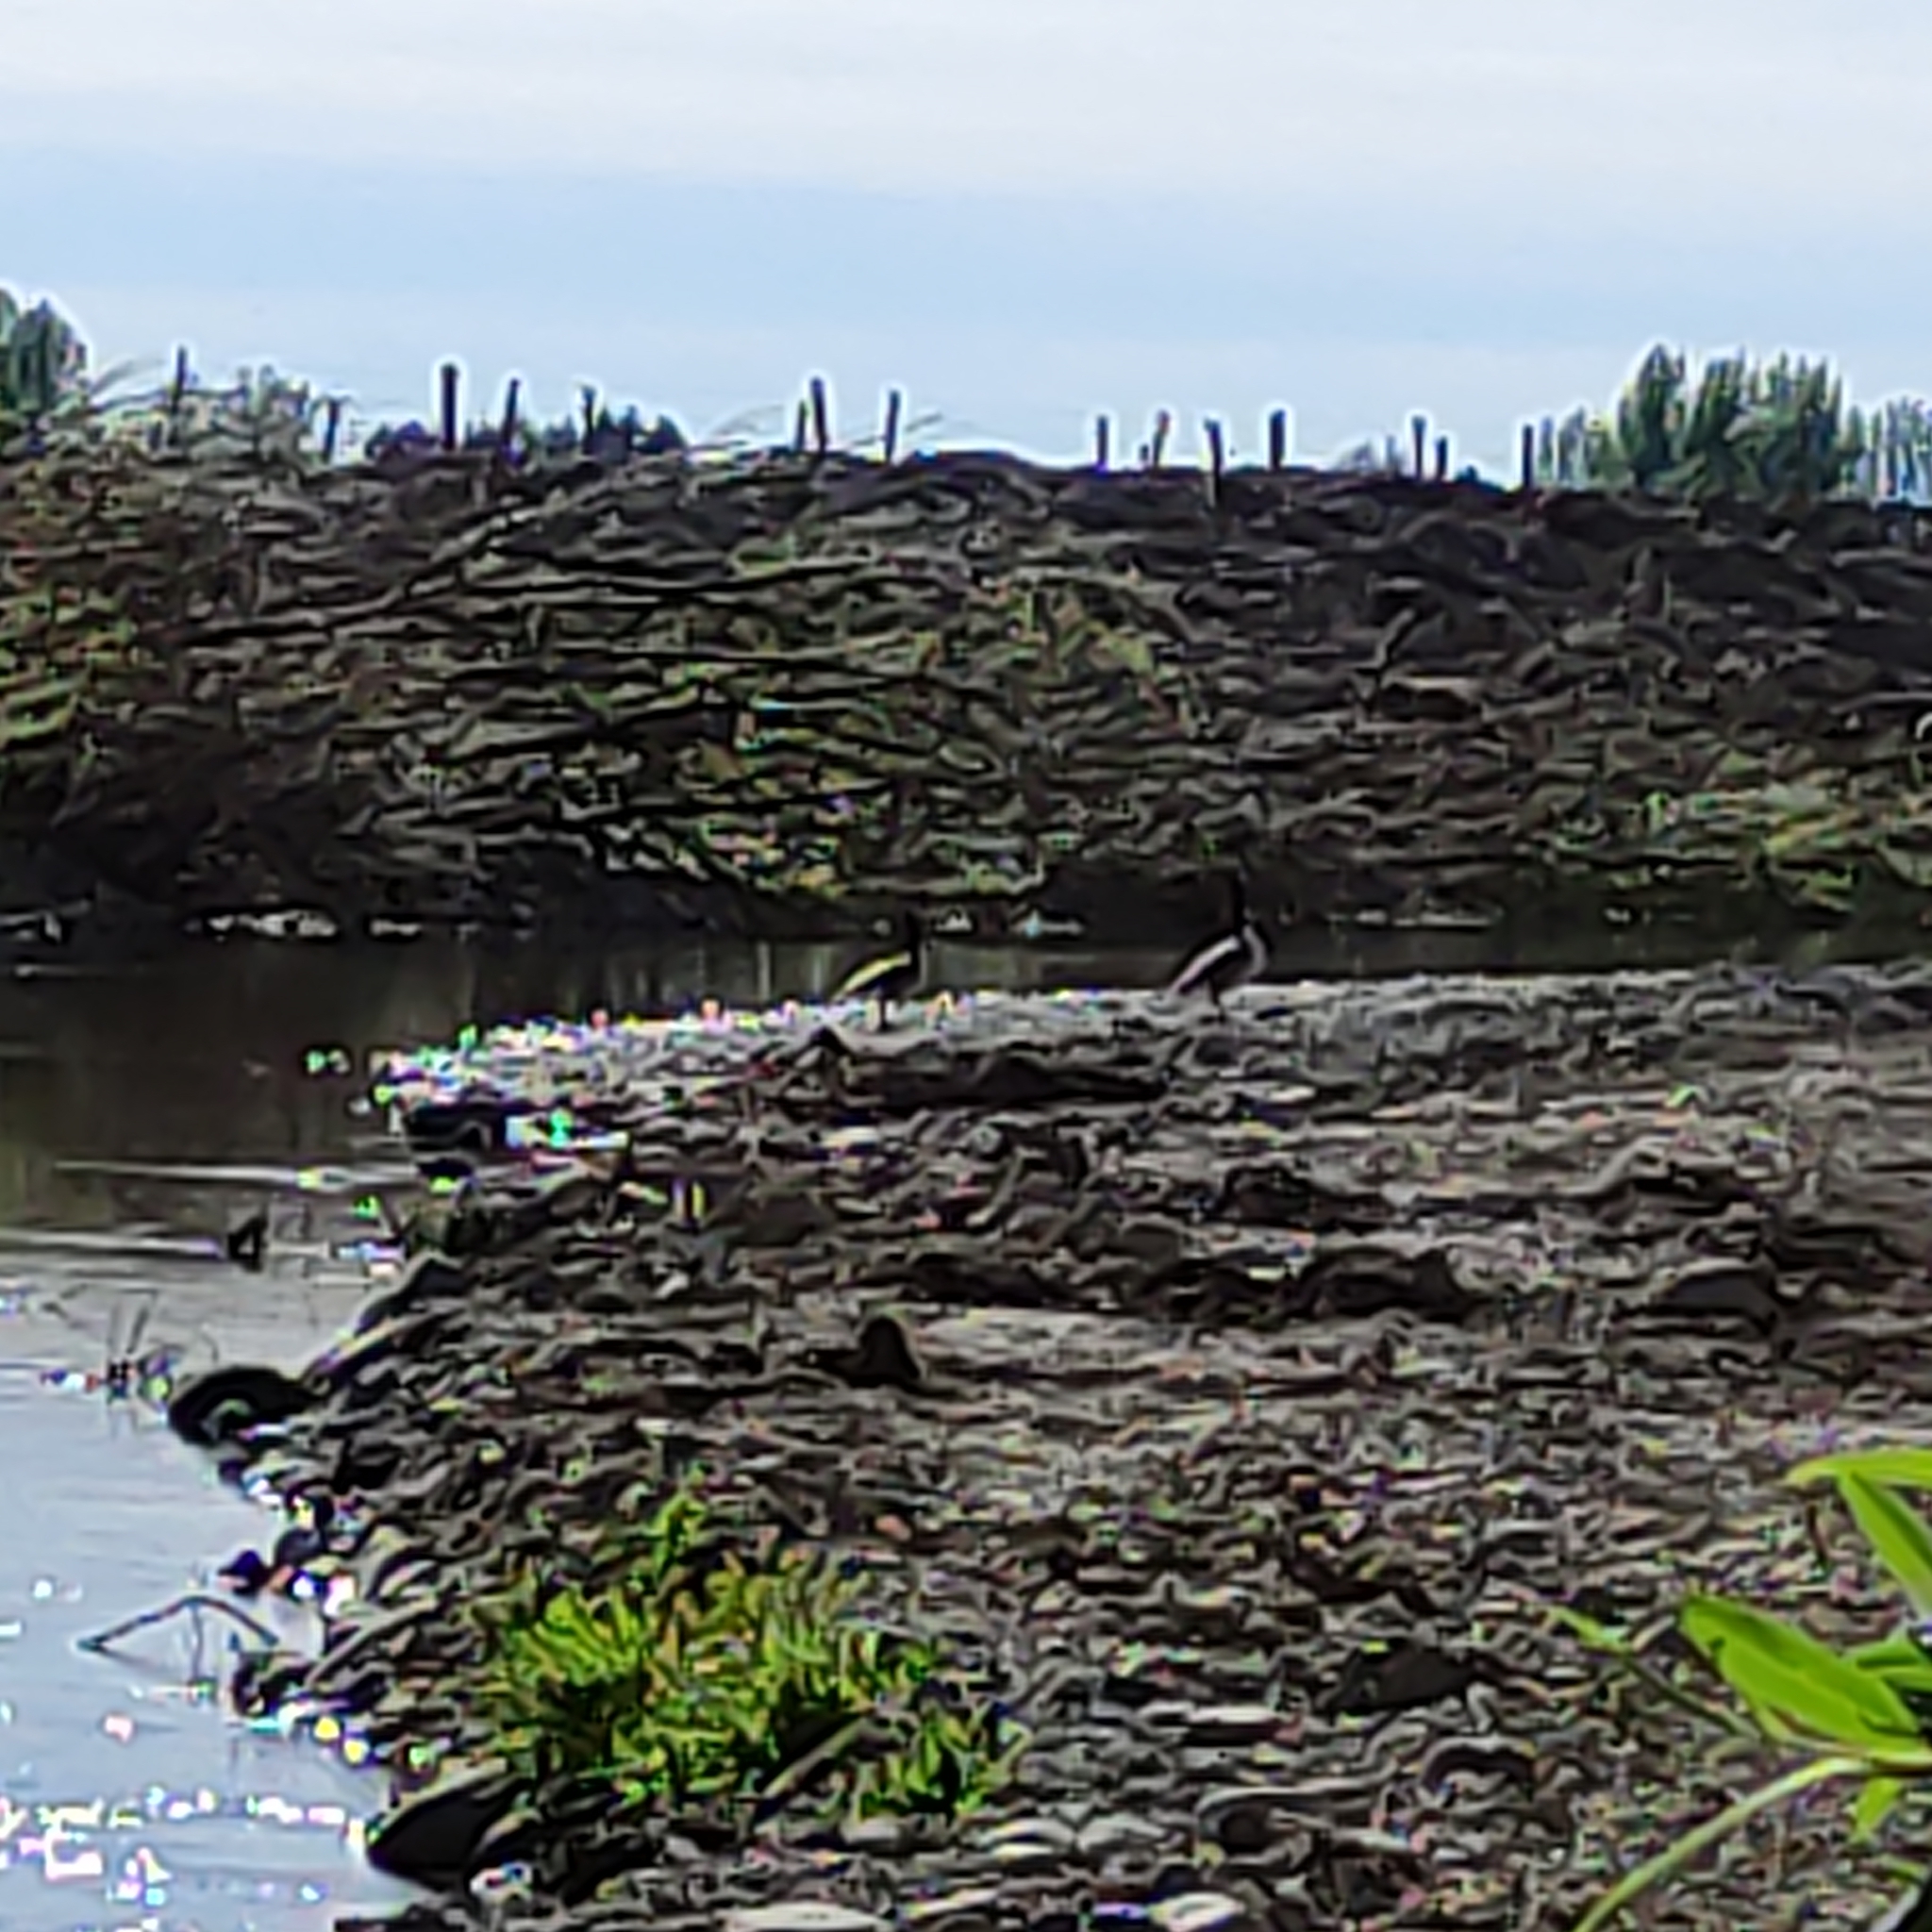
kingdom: Animalia
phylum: Chordata
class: Aves
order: Anseriformes
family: Anatidae
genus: Branta
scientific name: Branta canadensis
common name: Canada goose
